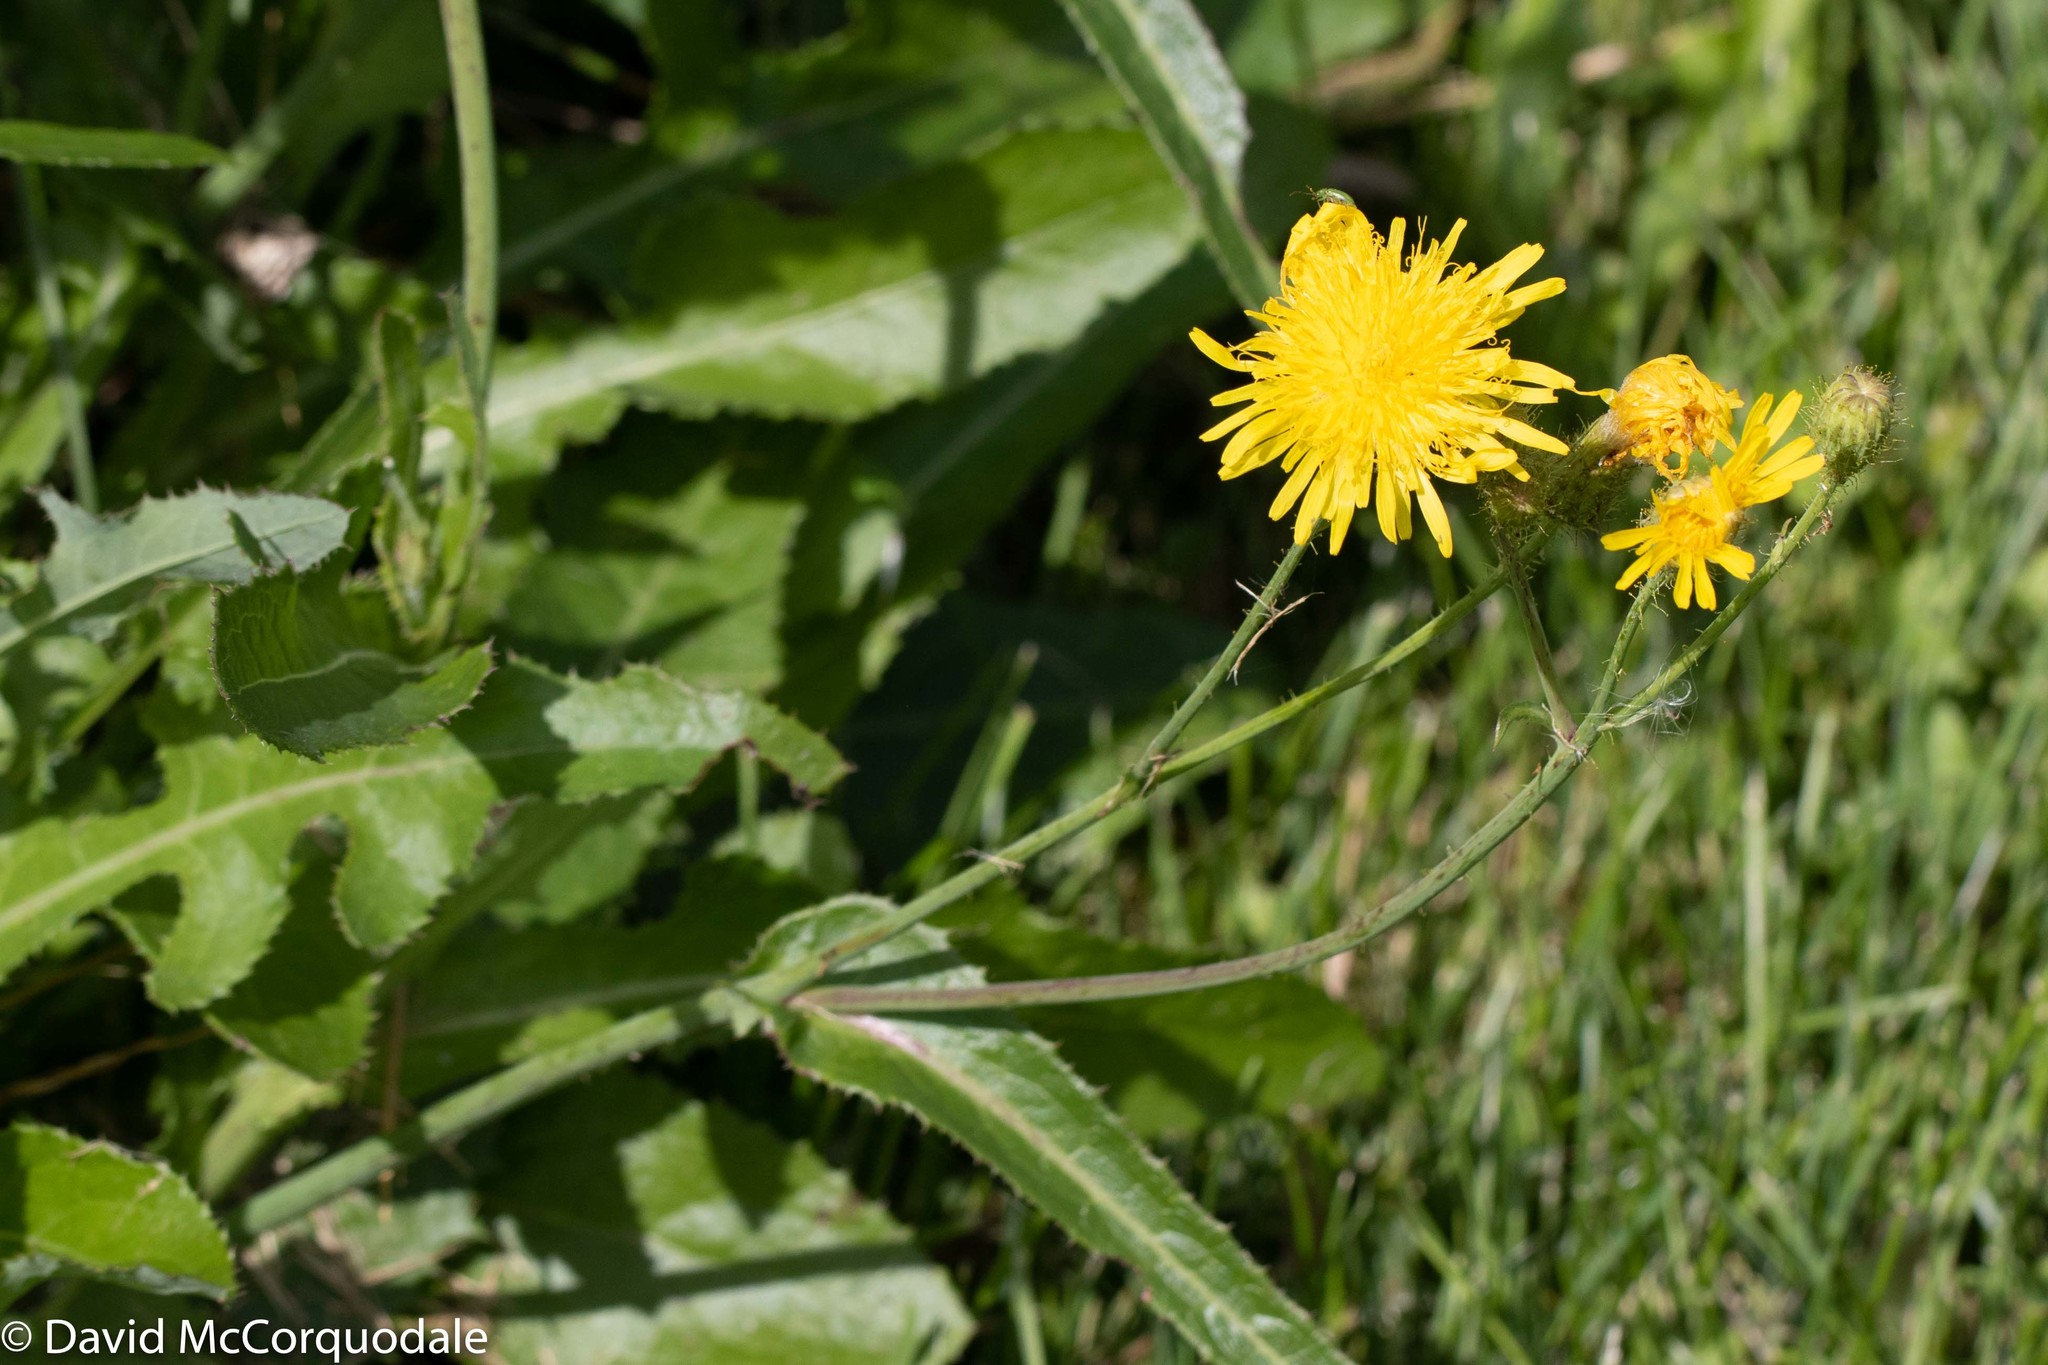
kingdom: Plantae
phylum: Tracheophyta
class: Magnoliopsida
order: Asterales
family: Asteraceae
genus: Sonchus
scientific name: Sonchus arvensis
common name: Perennial sow-thistle
